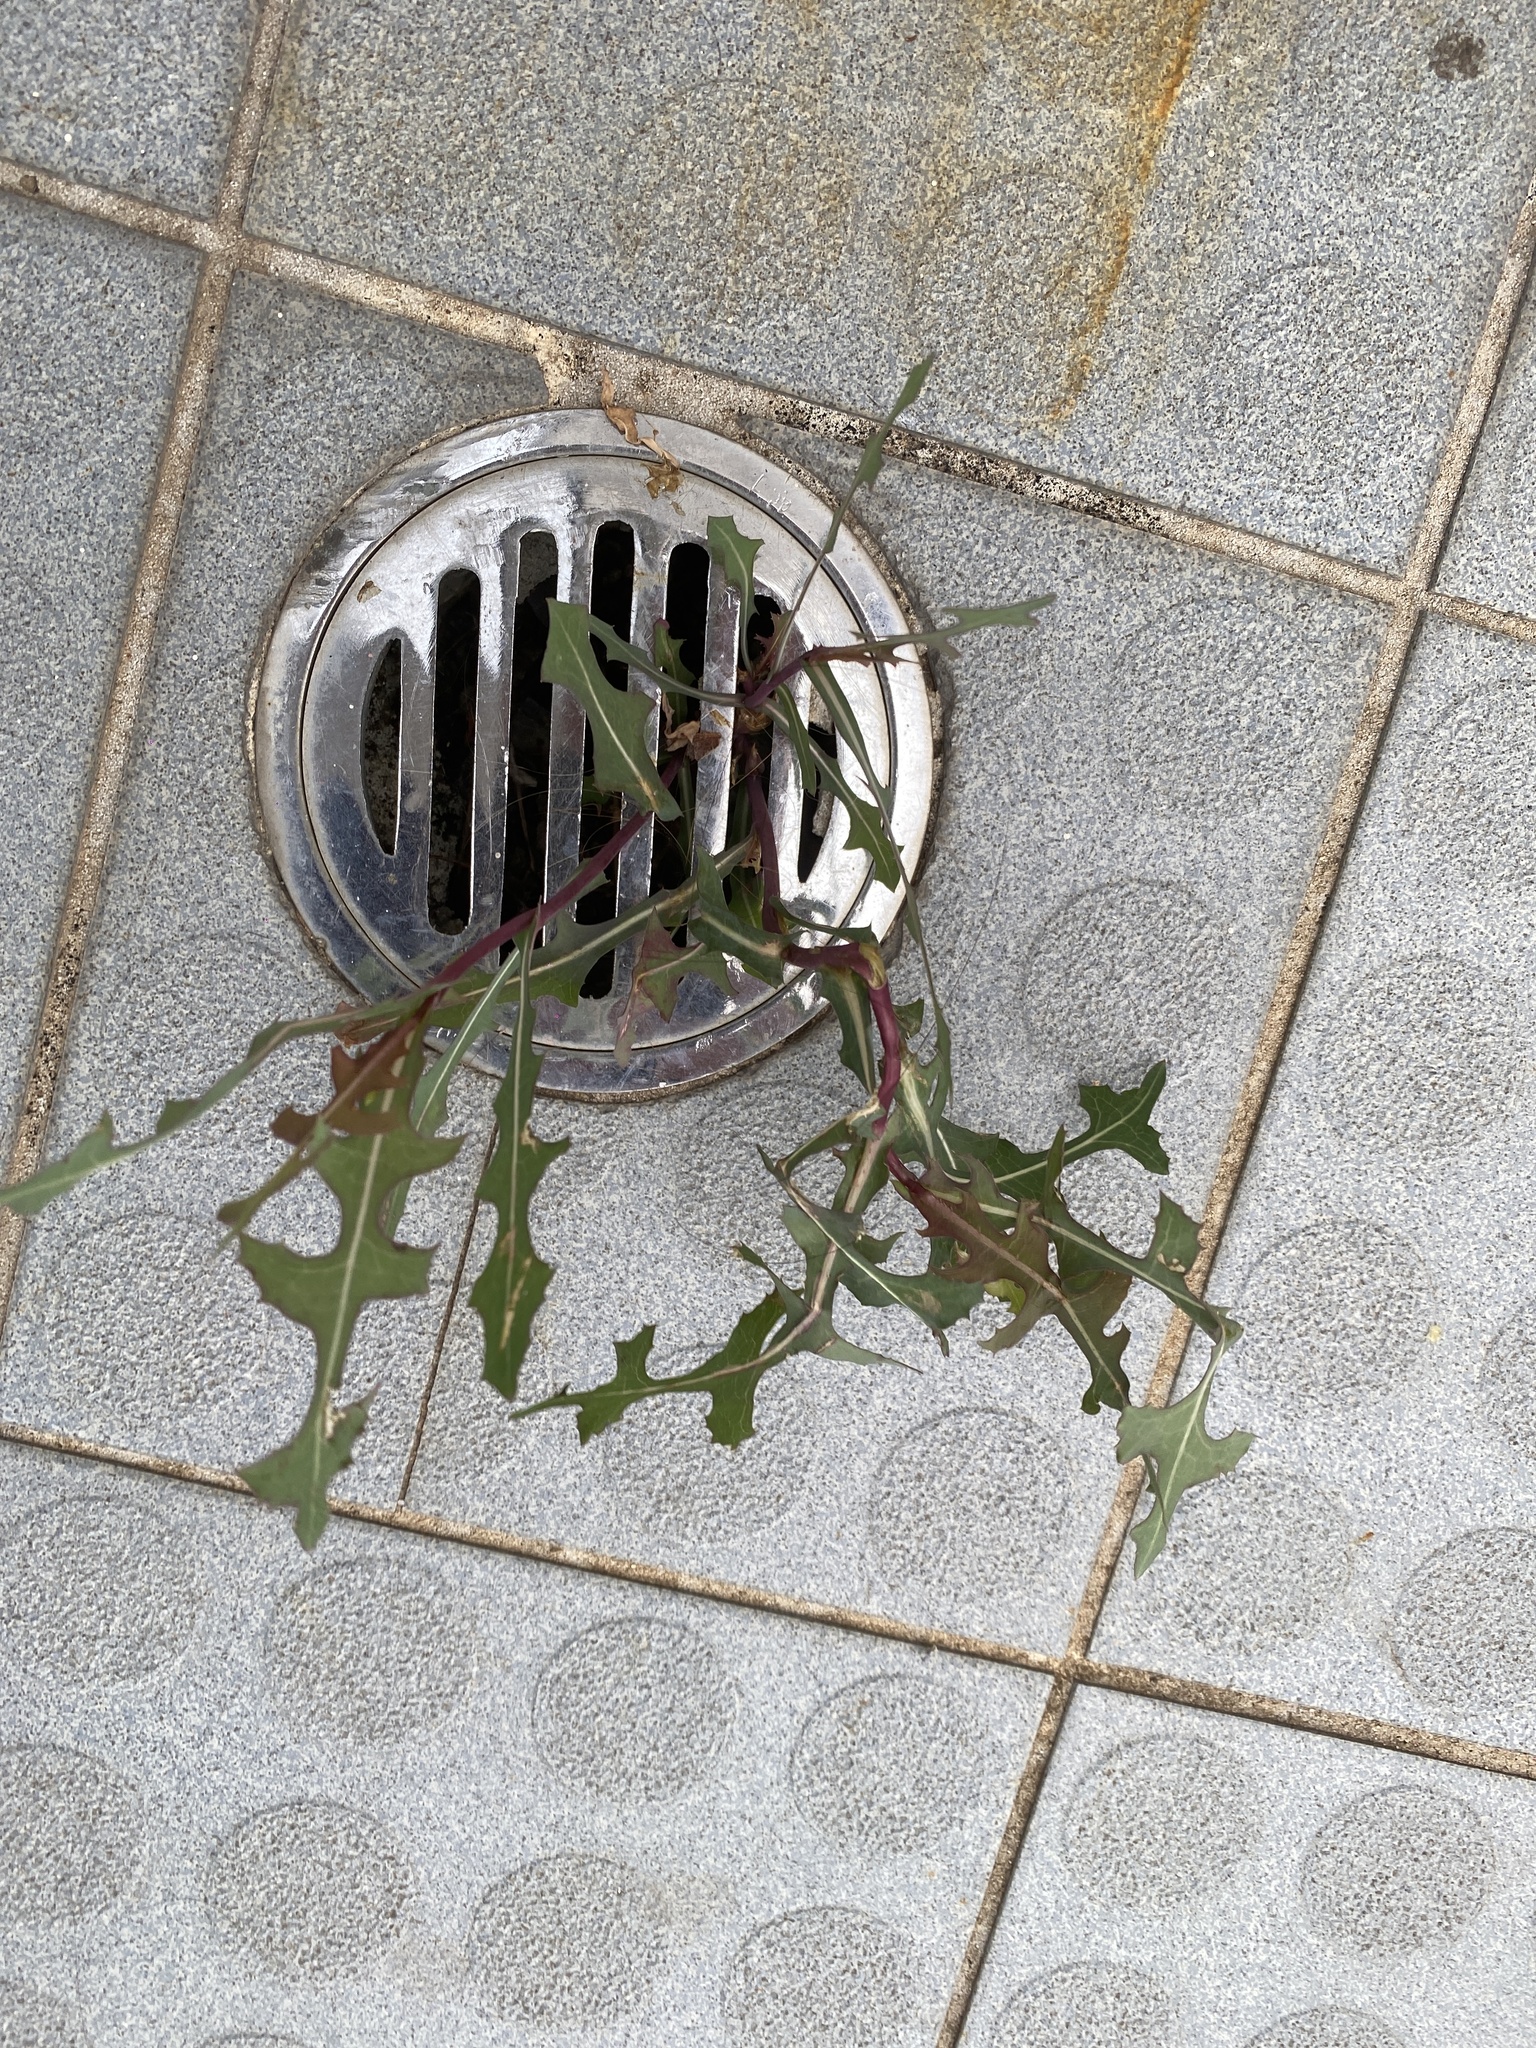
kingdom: Plantae
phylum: Tracheophyta
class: Magnoliopsida
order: Asterales
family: Asteraceae
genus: Lactuca
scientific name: Lactuca serriola
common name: Prickly lettuce
